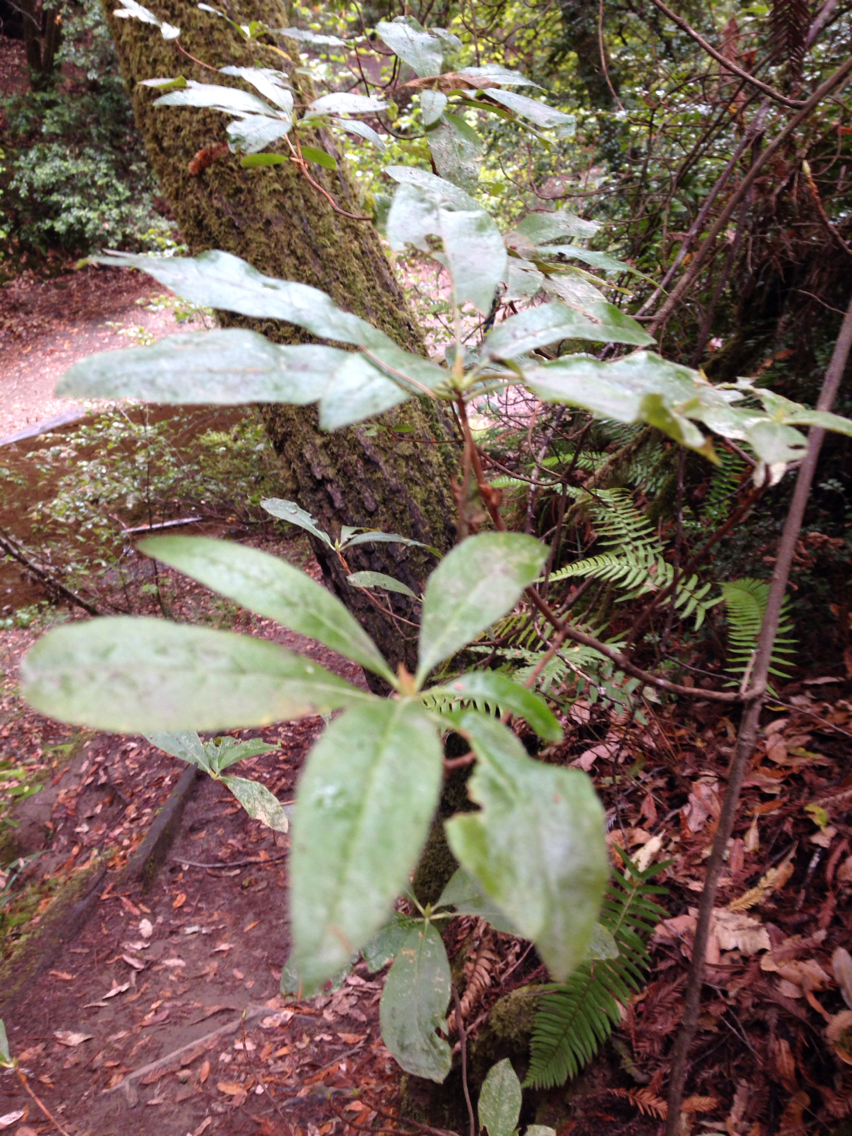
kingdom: Plantae
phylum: Tracheophyta
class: Magnoliopsida
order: Ericales
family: Ericaceae
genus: Rhododendron
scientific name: Rhododendron occidentale
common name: Western azalea
